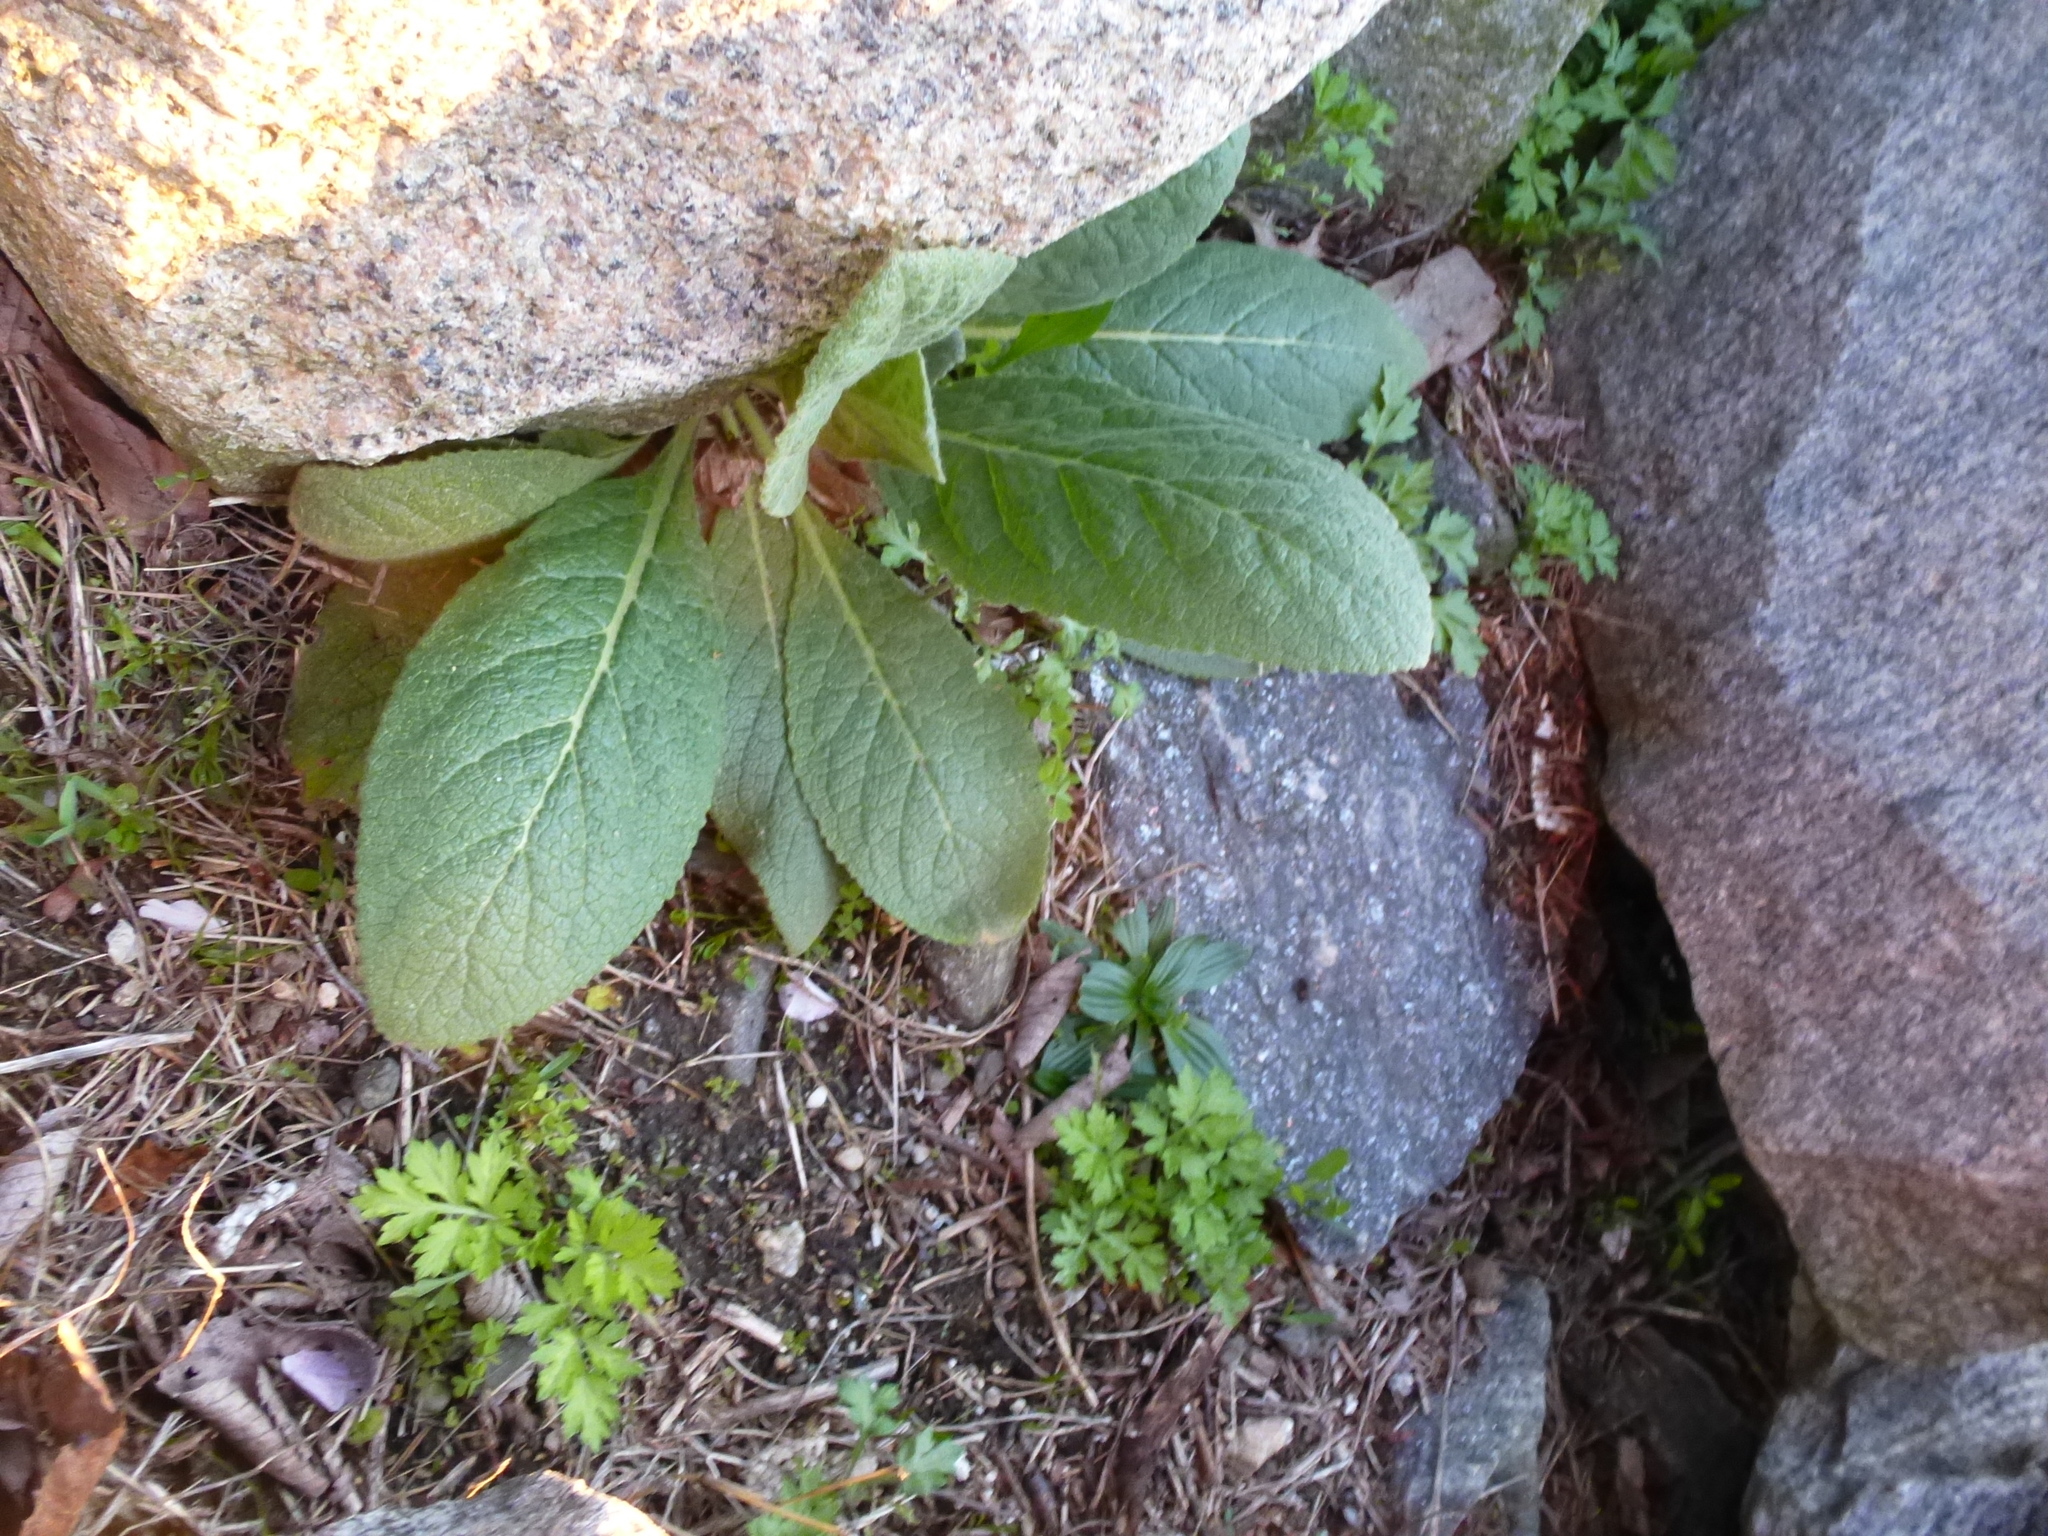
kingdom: Plantae
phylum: Tracheophyta
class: Magnoliopsida
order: Lamiales
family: Scrophulariaceae
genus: Verbascum
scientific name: Verbascum thapsus
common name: Common mullein
